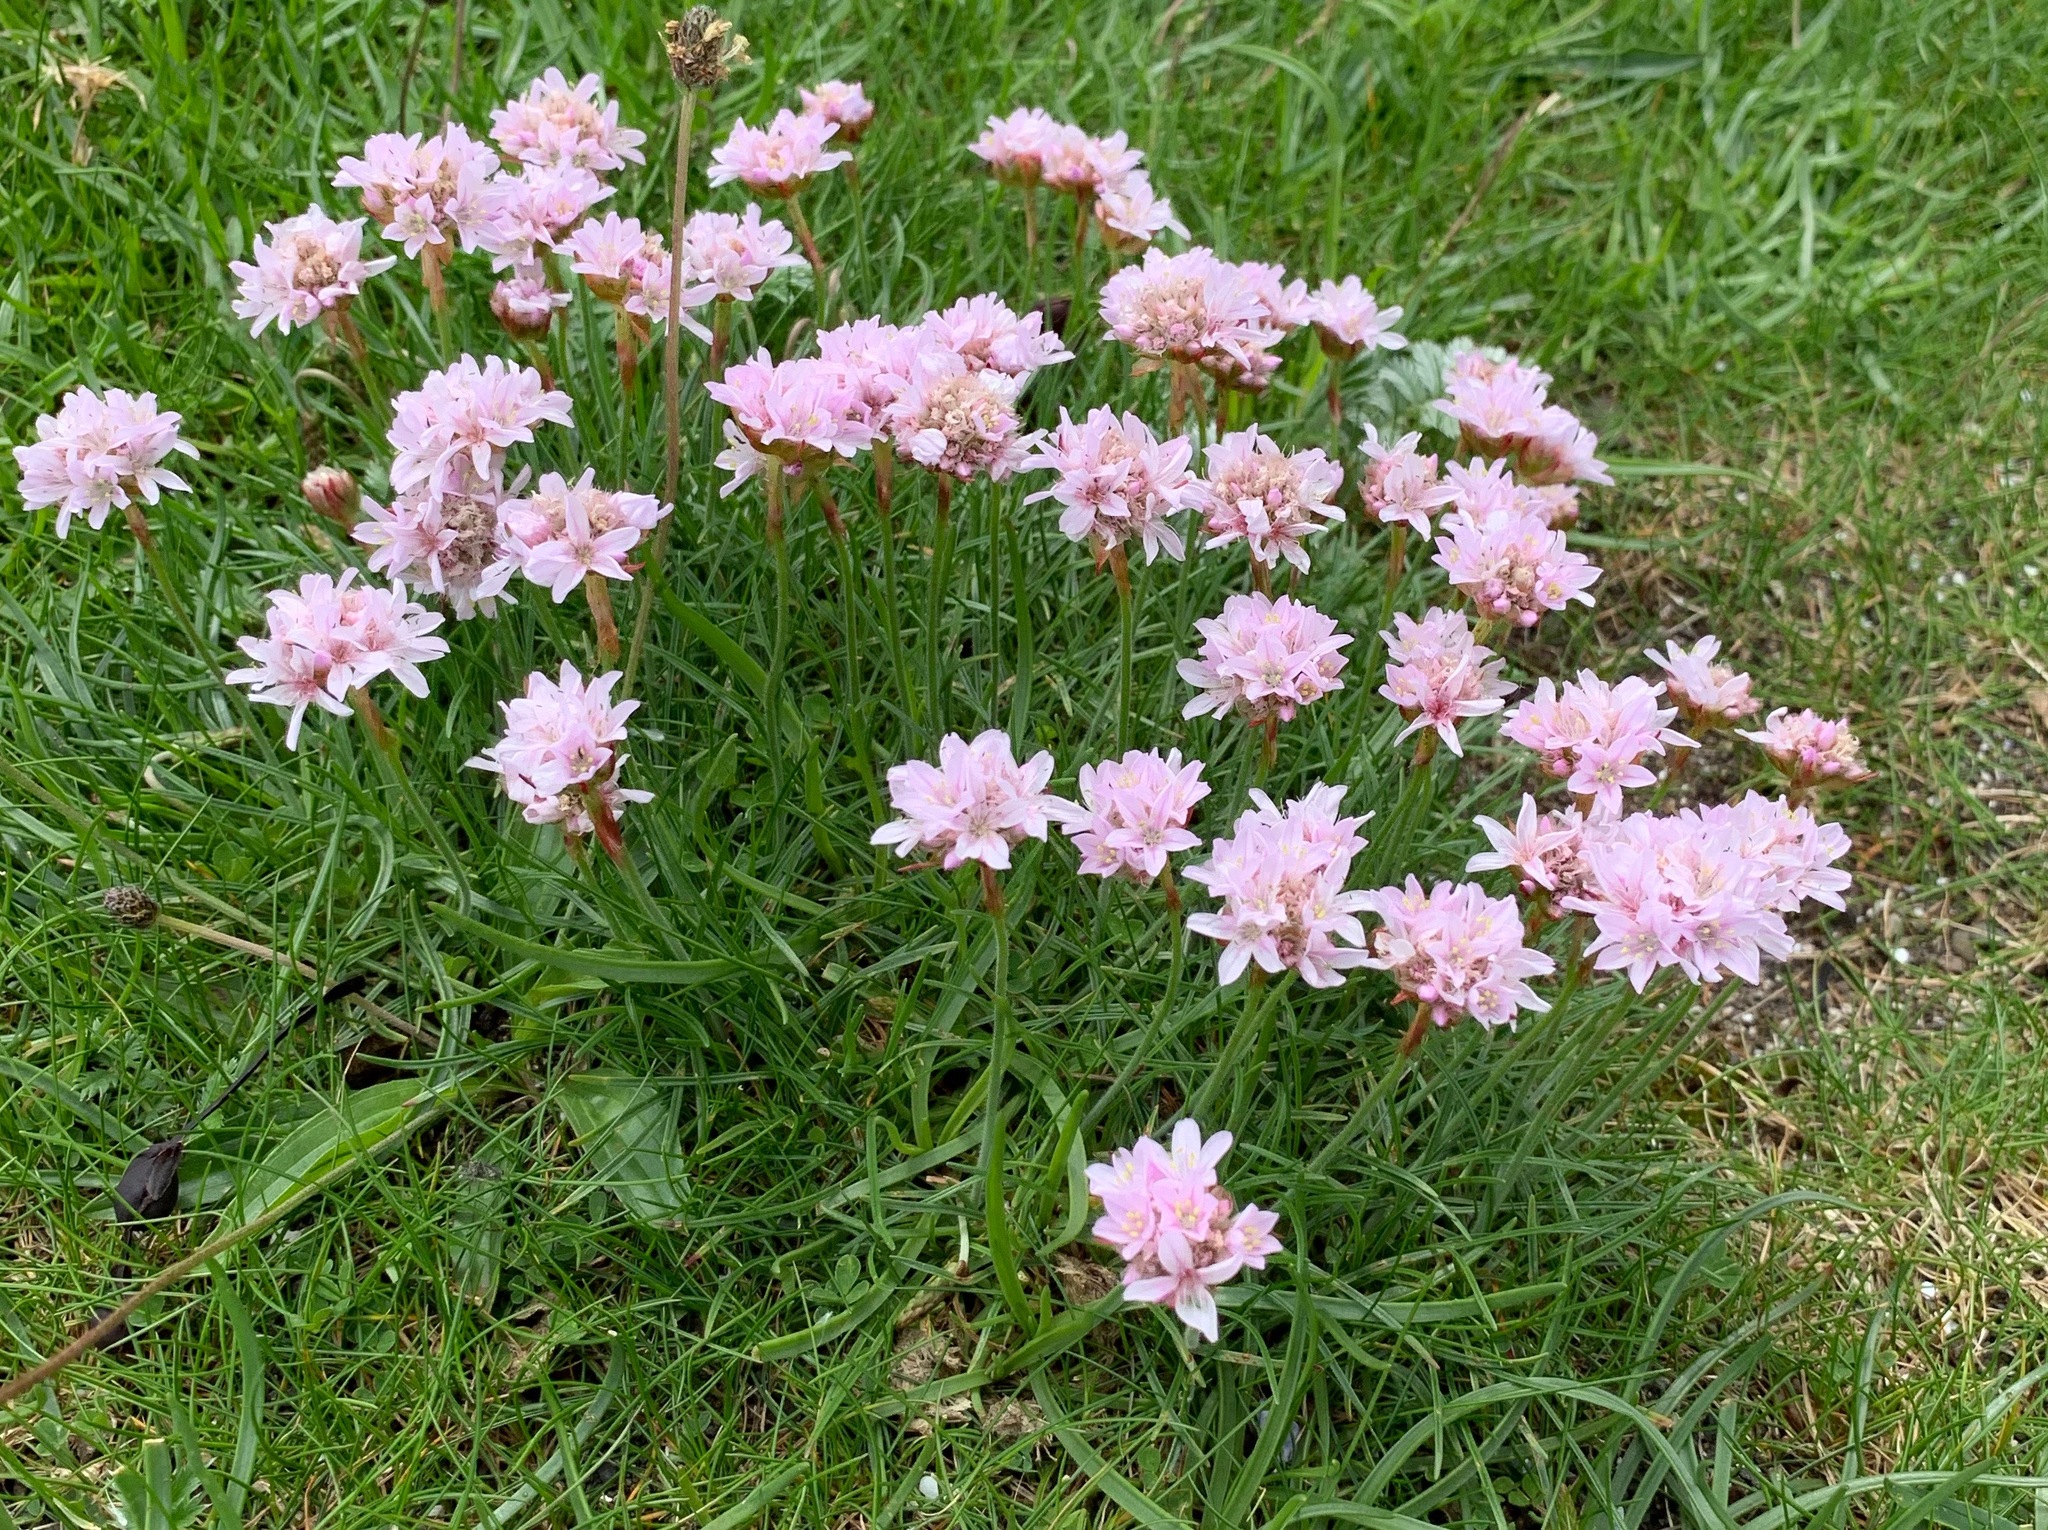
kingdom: Plantae
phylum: Tracheophyta
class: Magnoliopsida
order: Caryophyllales
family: Plumbaginaceae
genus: Armeria
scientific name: Armeria maritima
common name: Thrift
